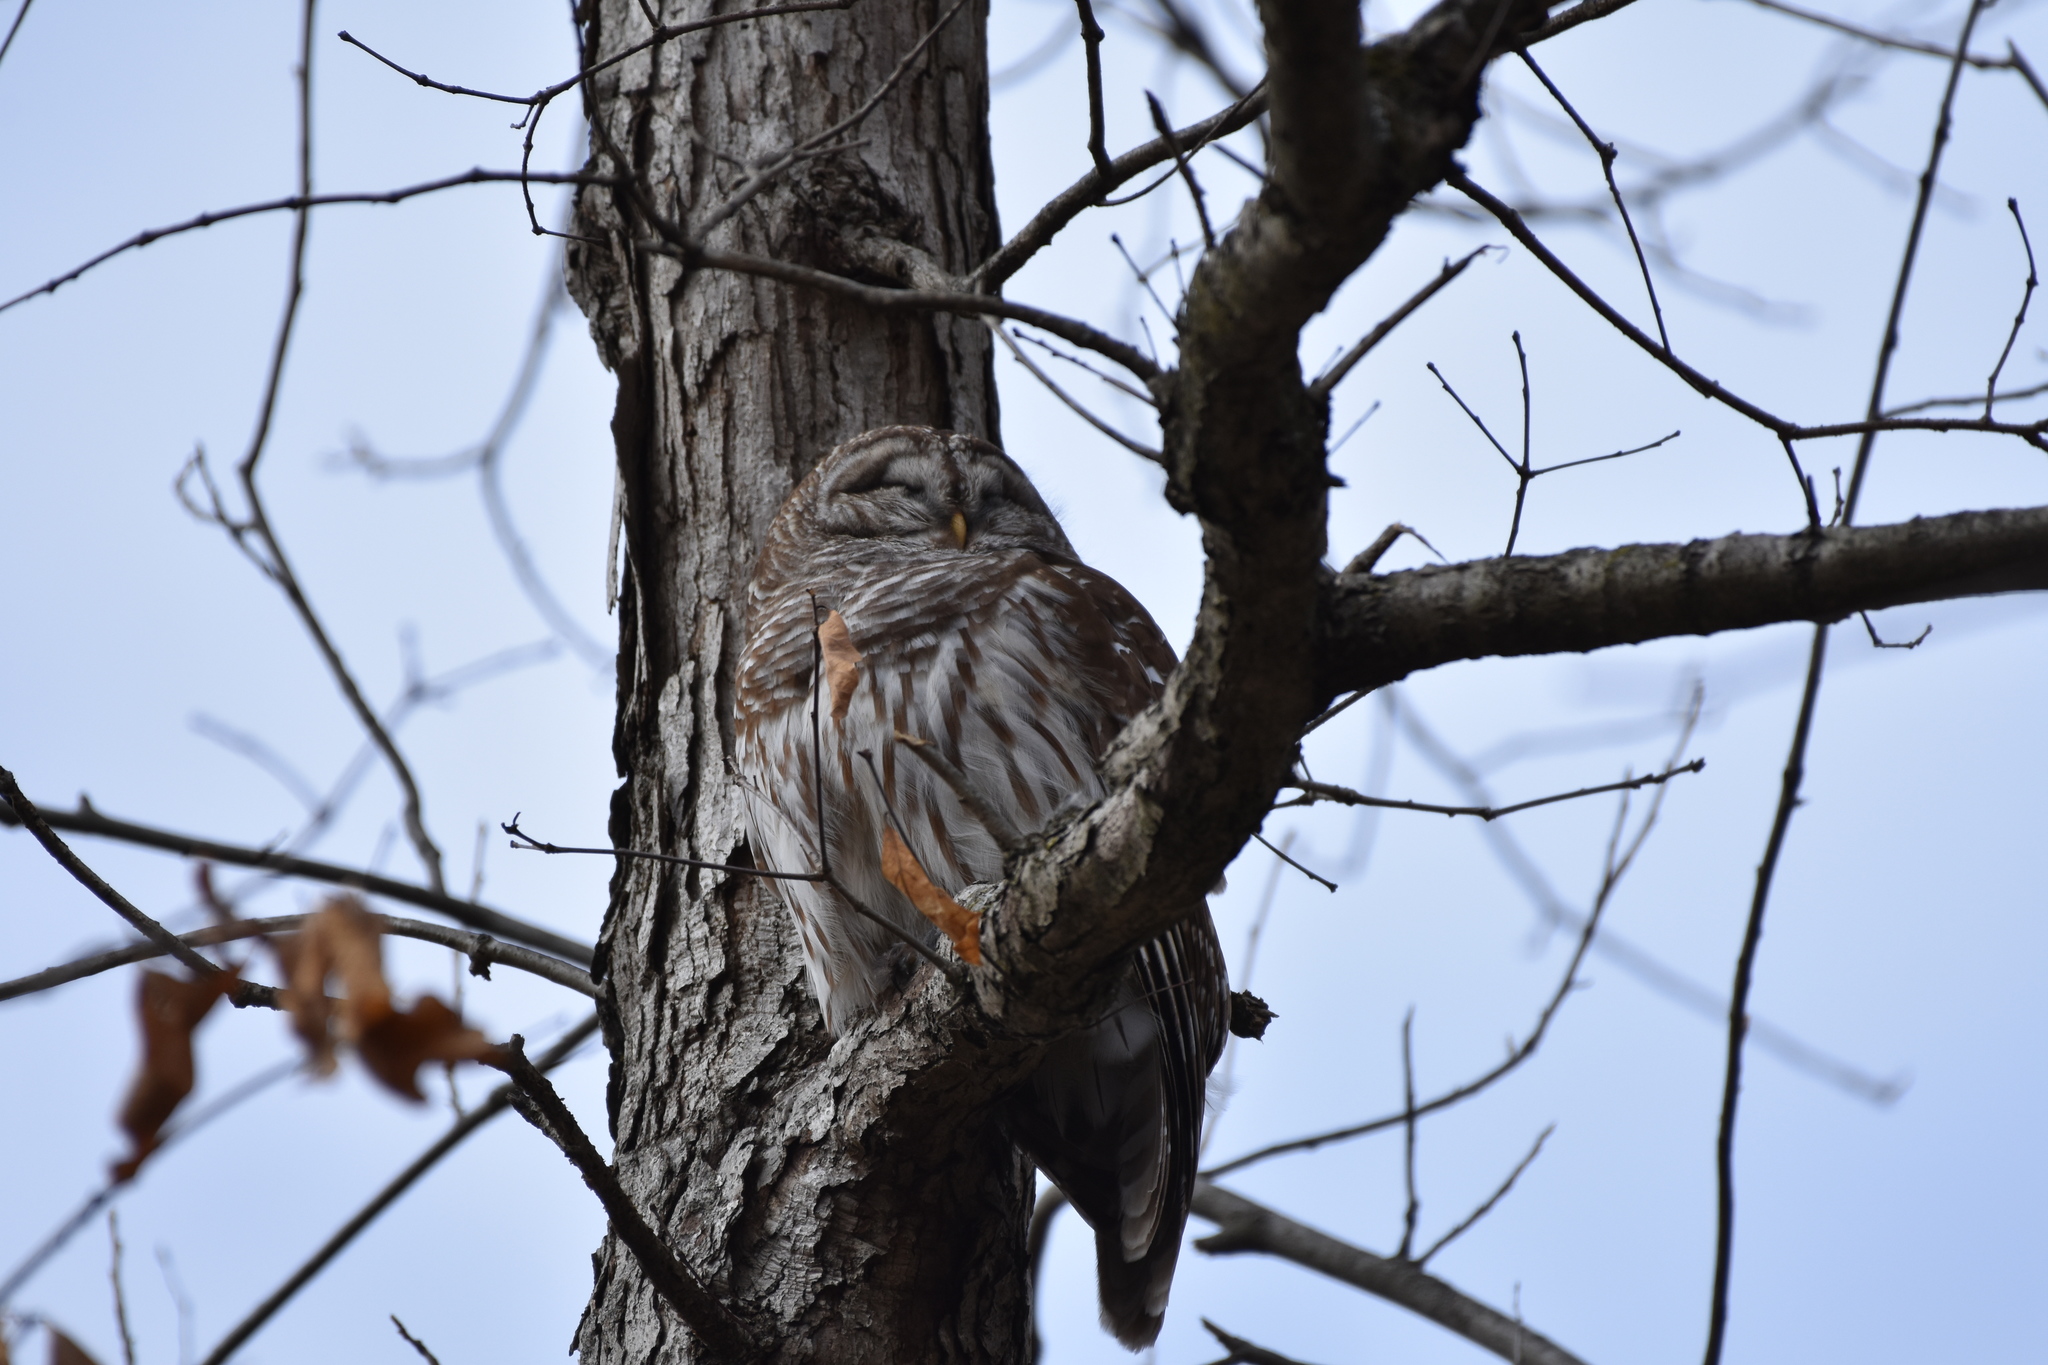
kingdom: Animalia
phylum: Chordata
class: Aves
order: Strigiformes
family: Strigidae
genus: Strix
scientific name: Strix varia
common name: Barred owl
